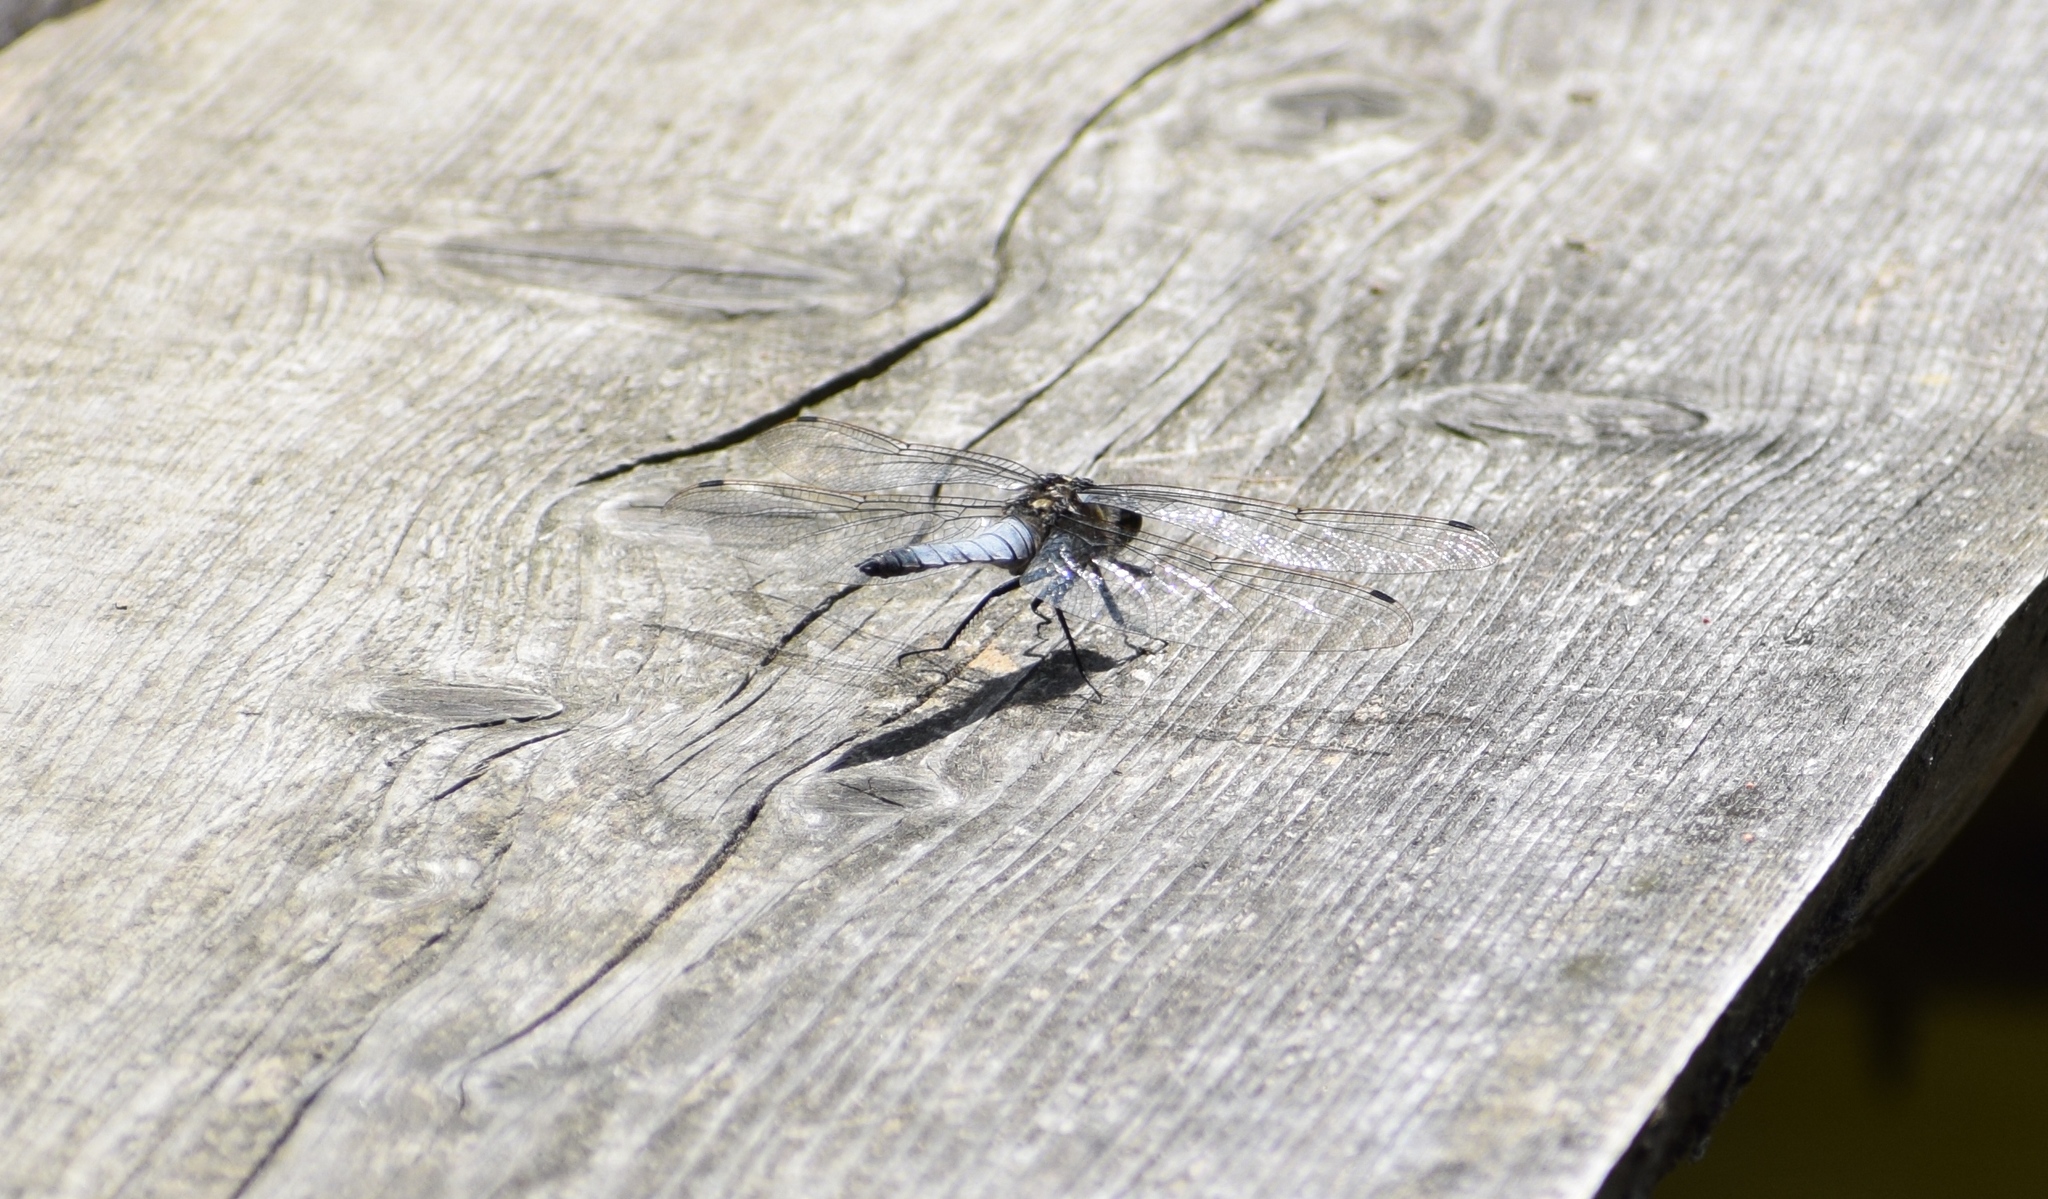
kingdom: Animalia
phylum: Arthropoda
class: Insecta
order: Odonata
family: Libellulidae
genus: Orthetrum
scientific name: Orthetrum cancellatum
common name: Black-tailed skimmer
